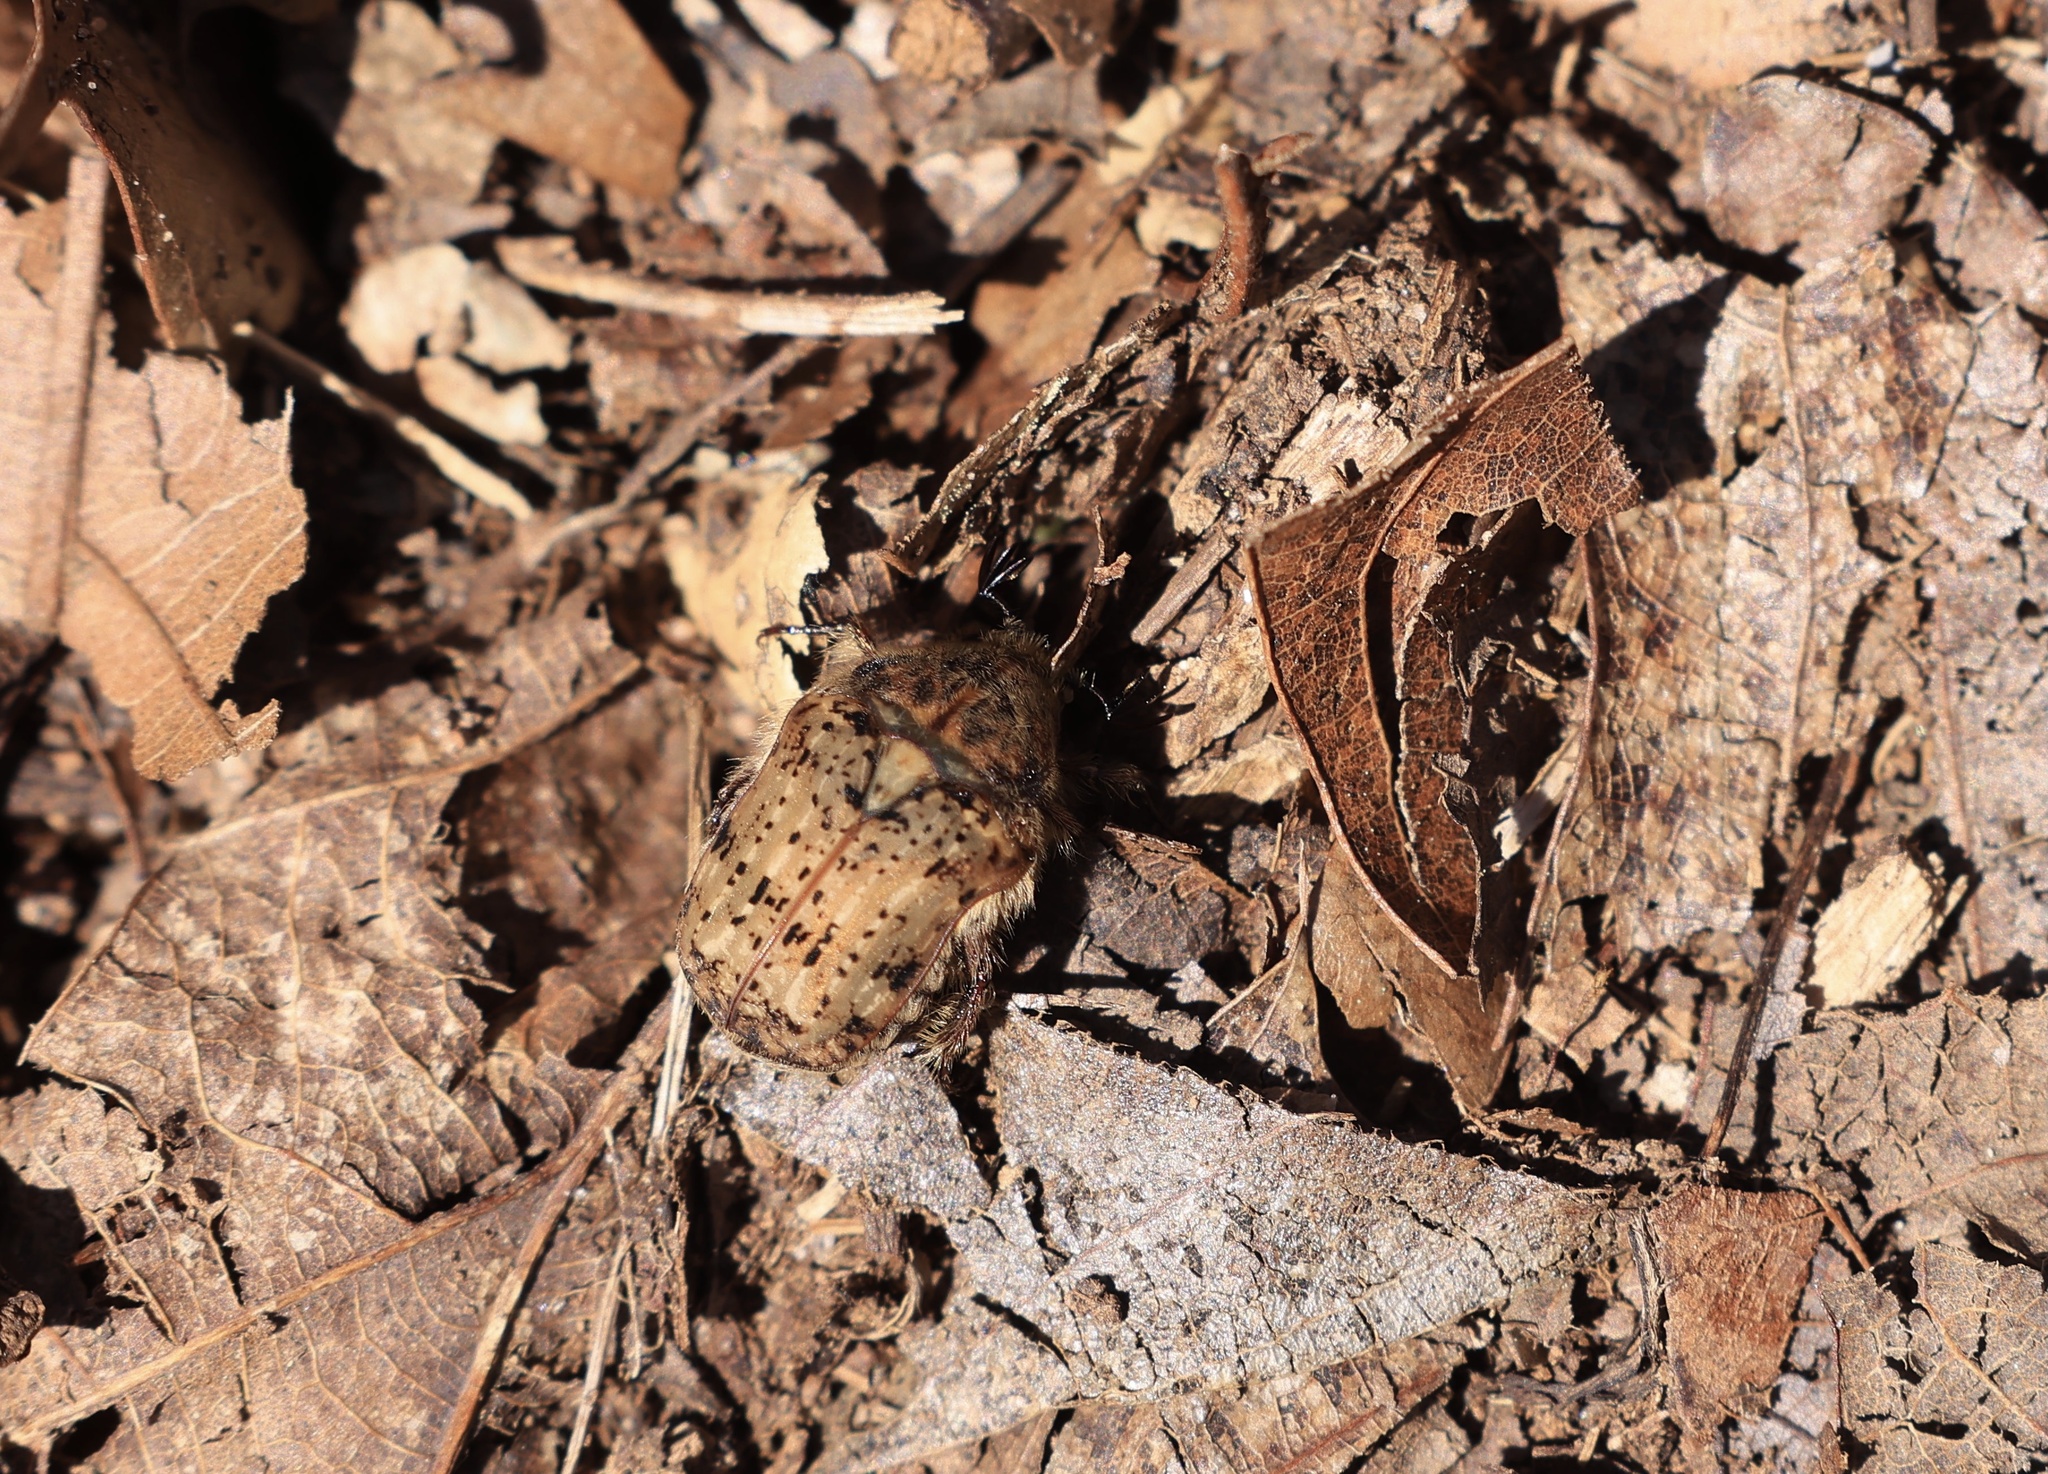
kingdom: Animalia
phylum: Arthropoda
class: Insecta
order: Coleoptera
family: Scarabaeidae
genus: Euphoria
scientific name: Euphoria inda
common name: Bumble flower beetle
